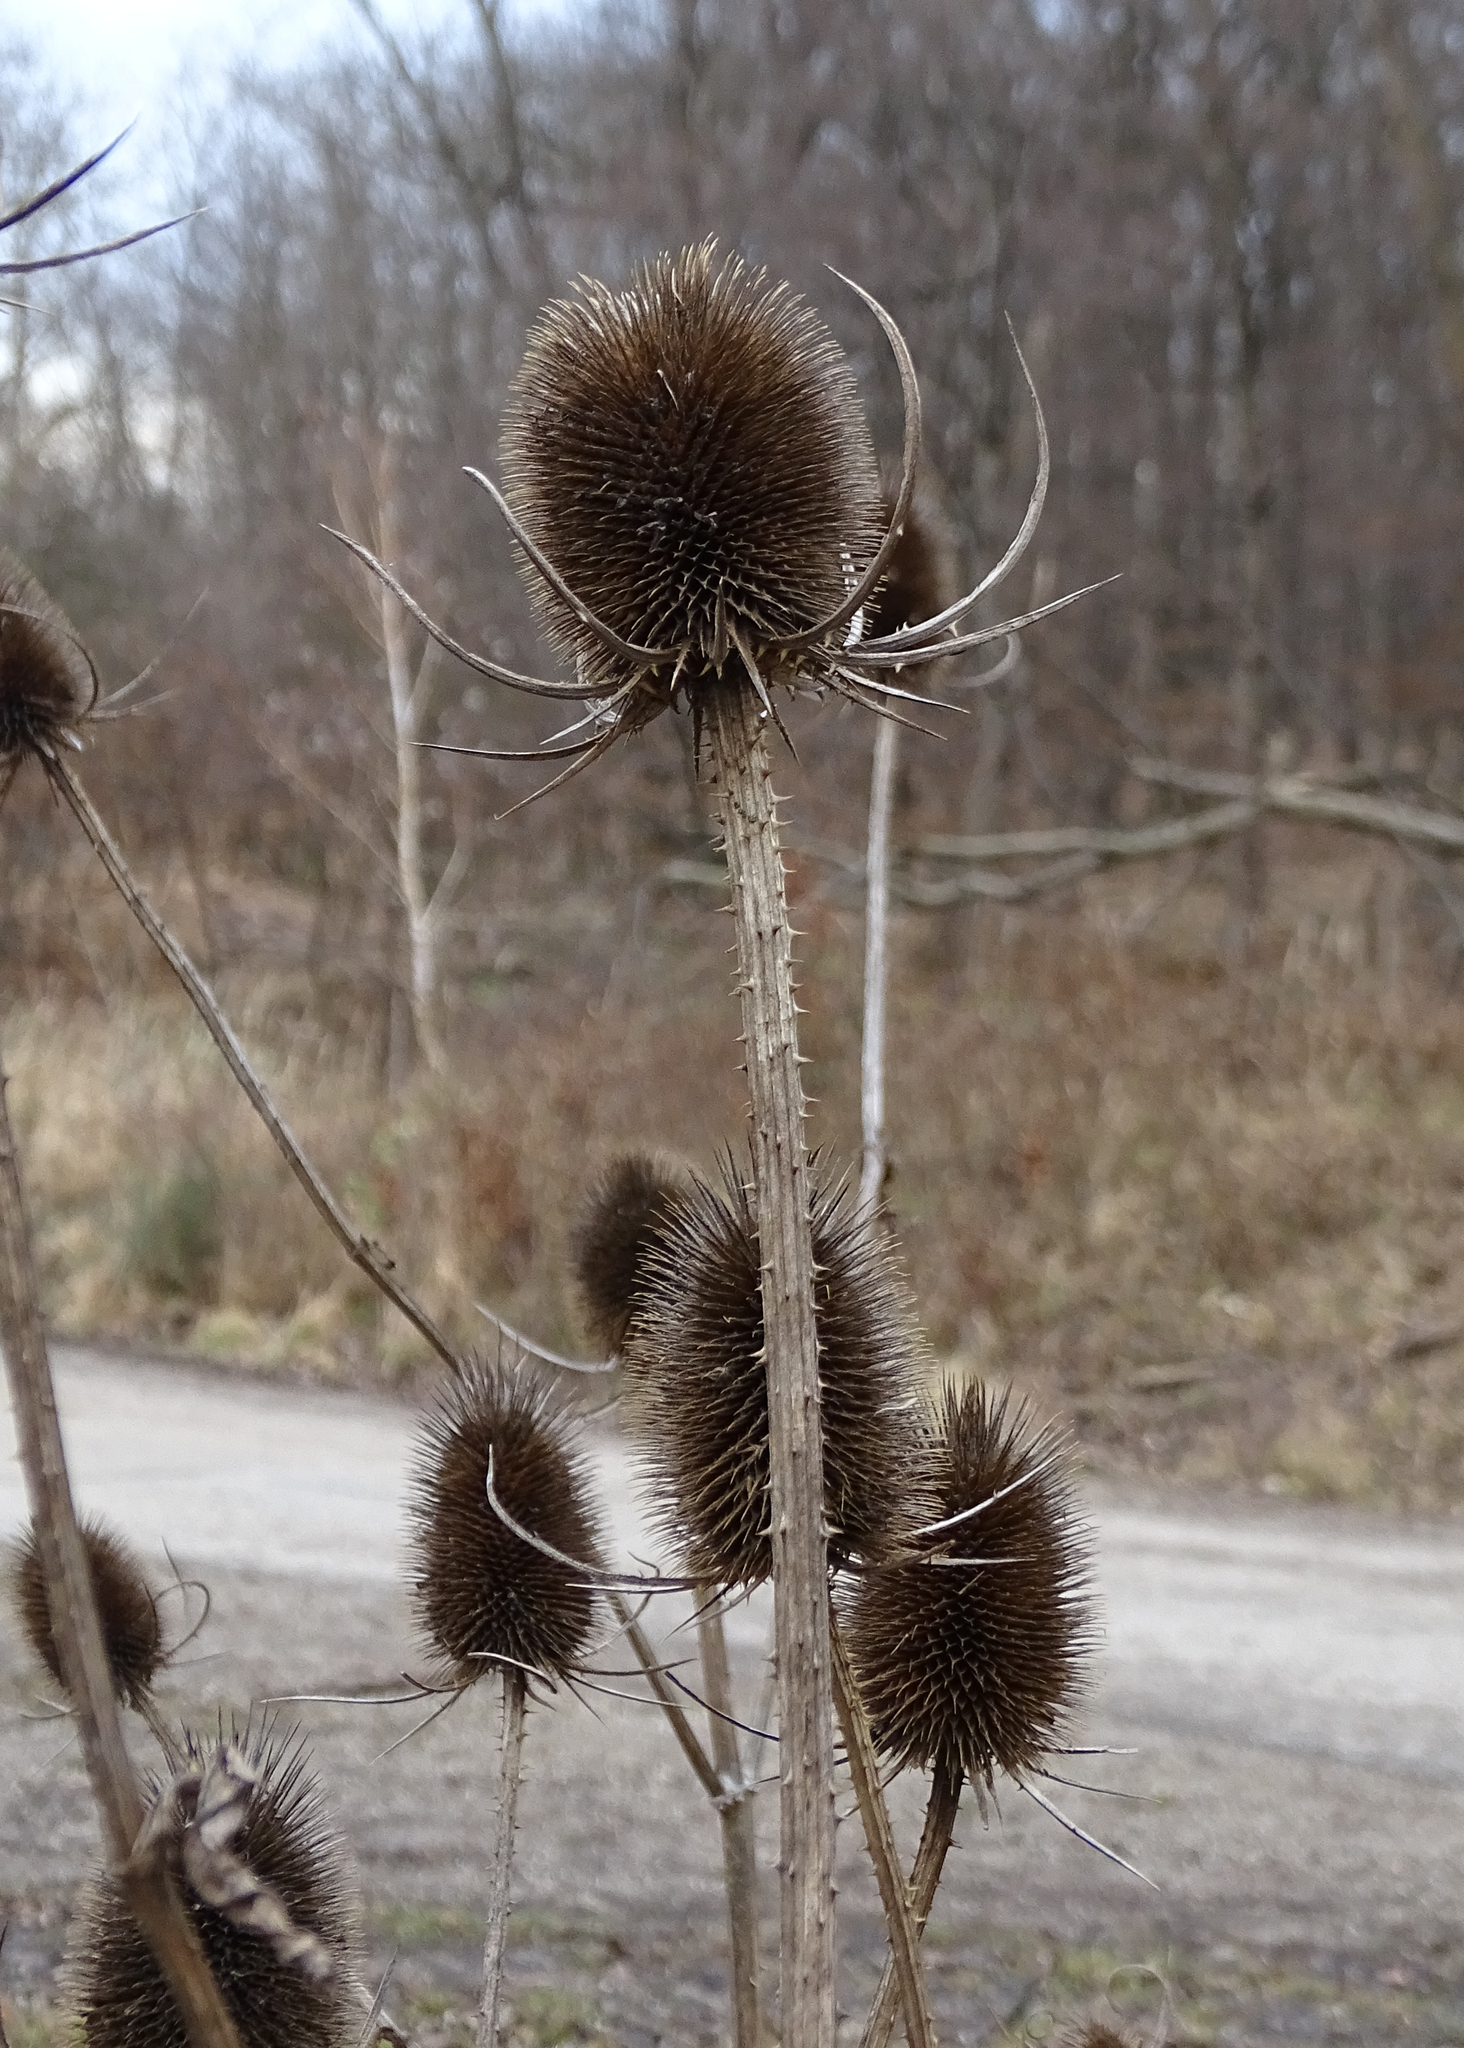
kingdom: Plantae
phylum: Tracheophyta
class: Magnoliopsida
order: Dipsacales
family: Caprifoliaceae
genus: Dipsacus
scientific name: Dipsacus fullonum
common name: Teasel
